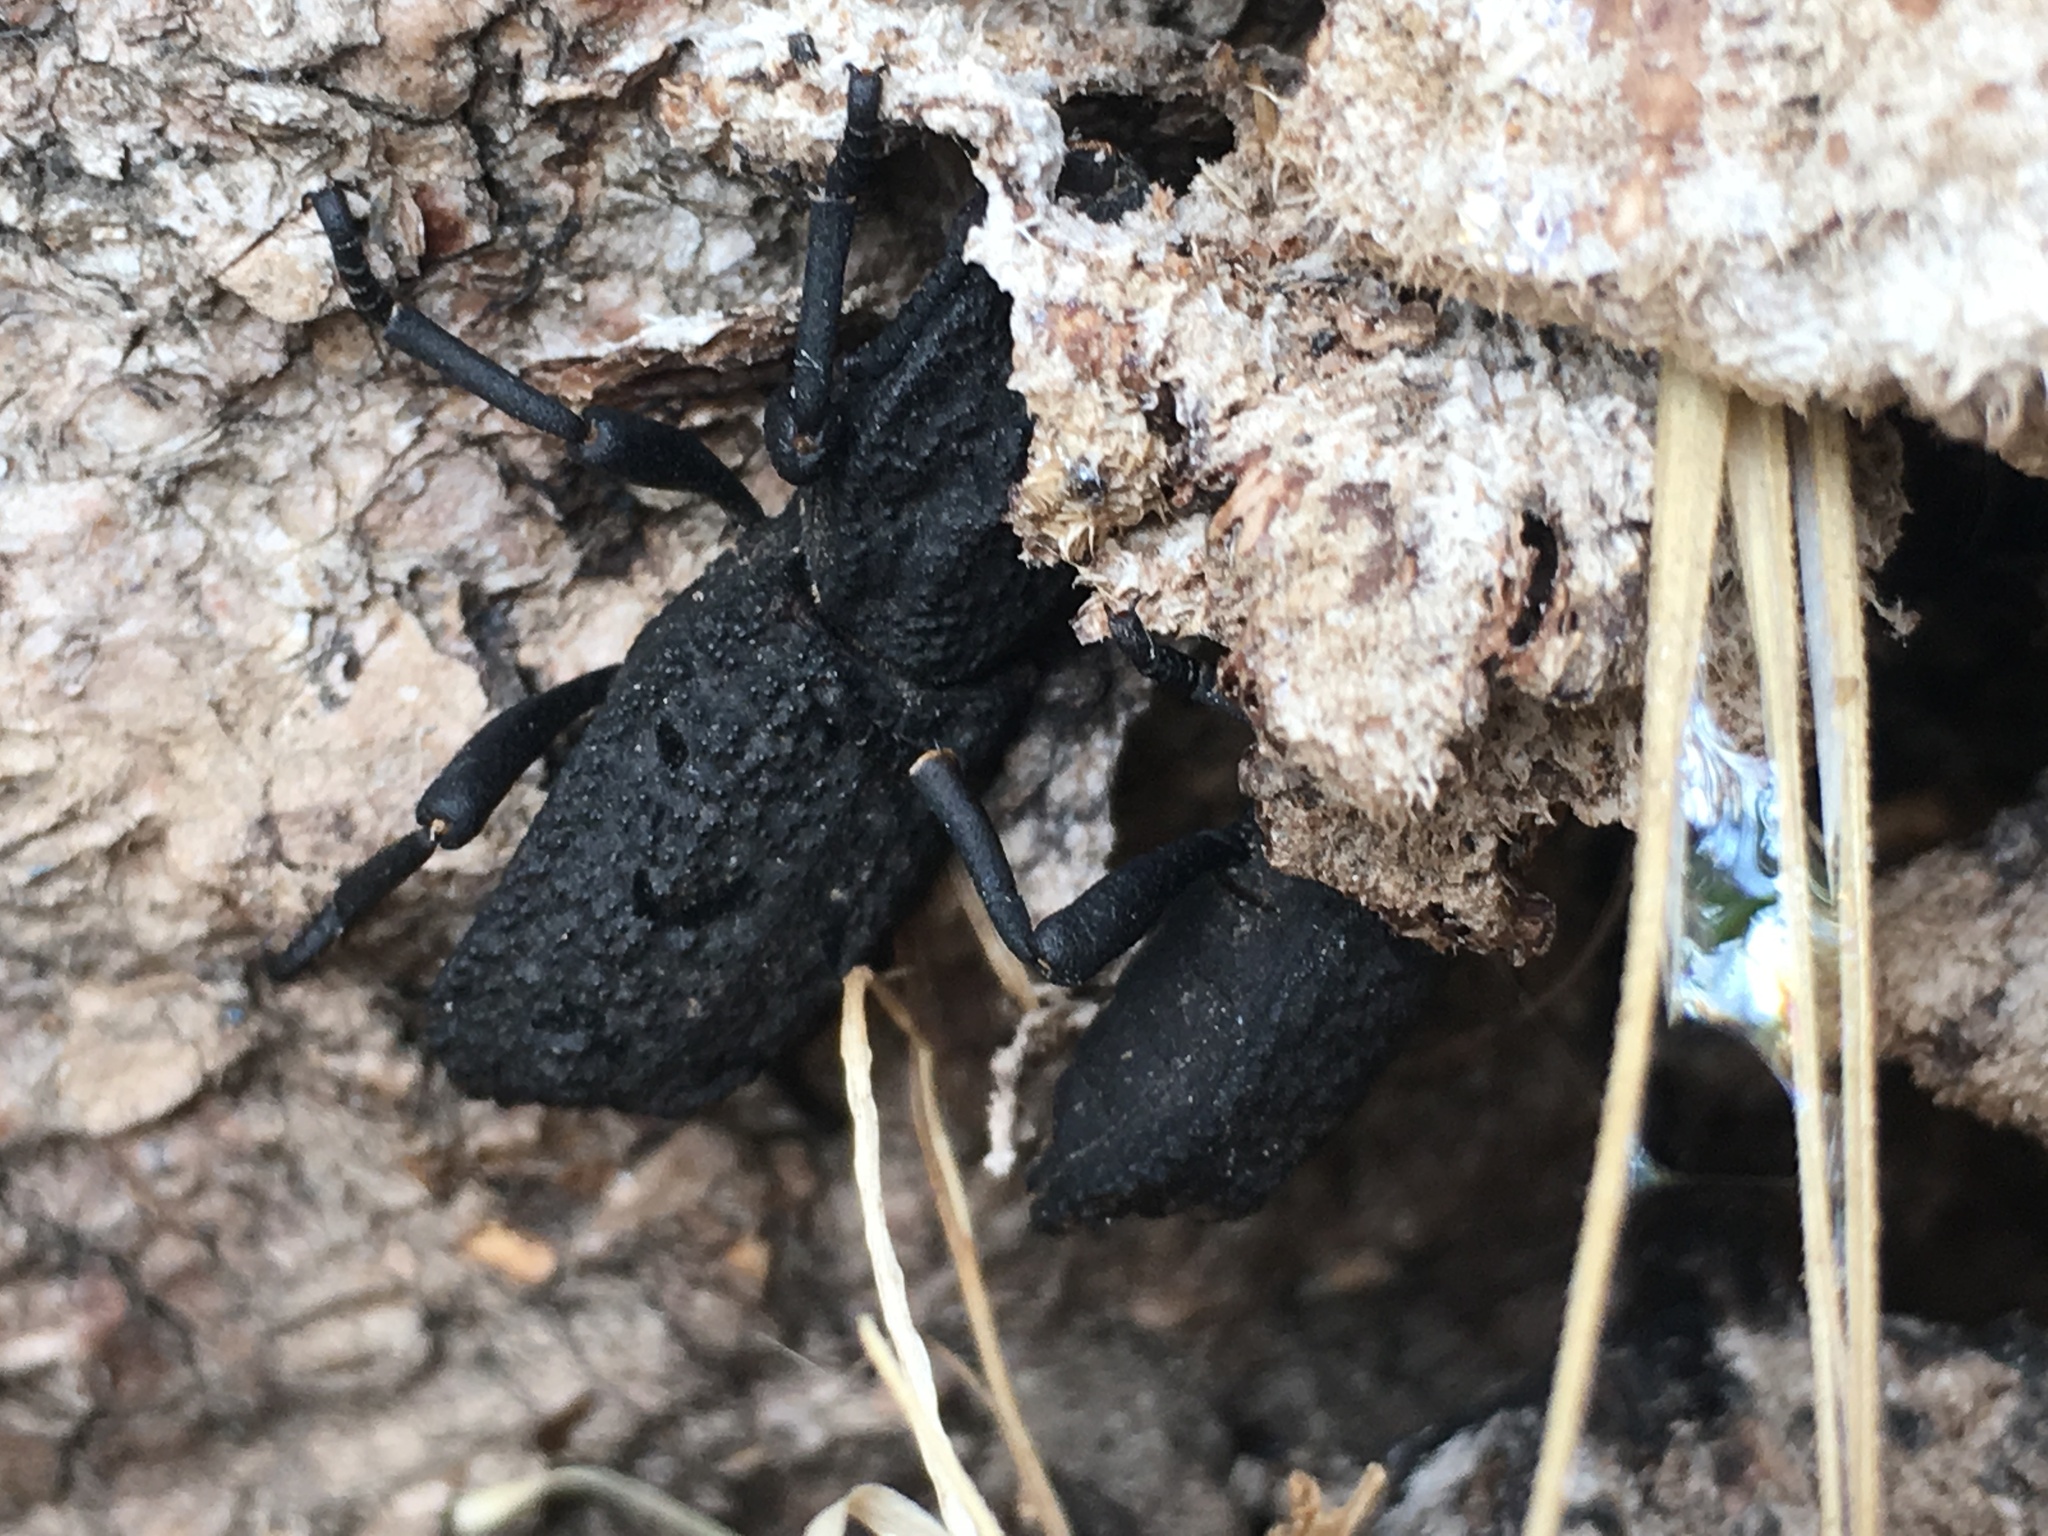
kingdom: Animalia
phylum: Arthropoda
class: Insecta
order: Coleoptera
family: Zopheridae
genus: Phloeodes
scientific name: Phloeodes diabolicus
